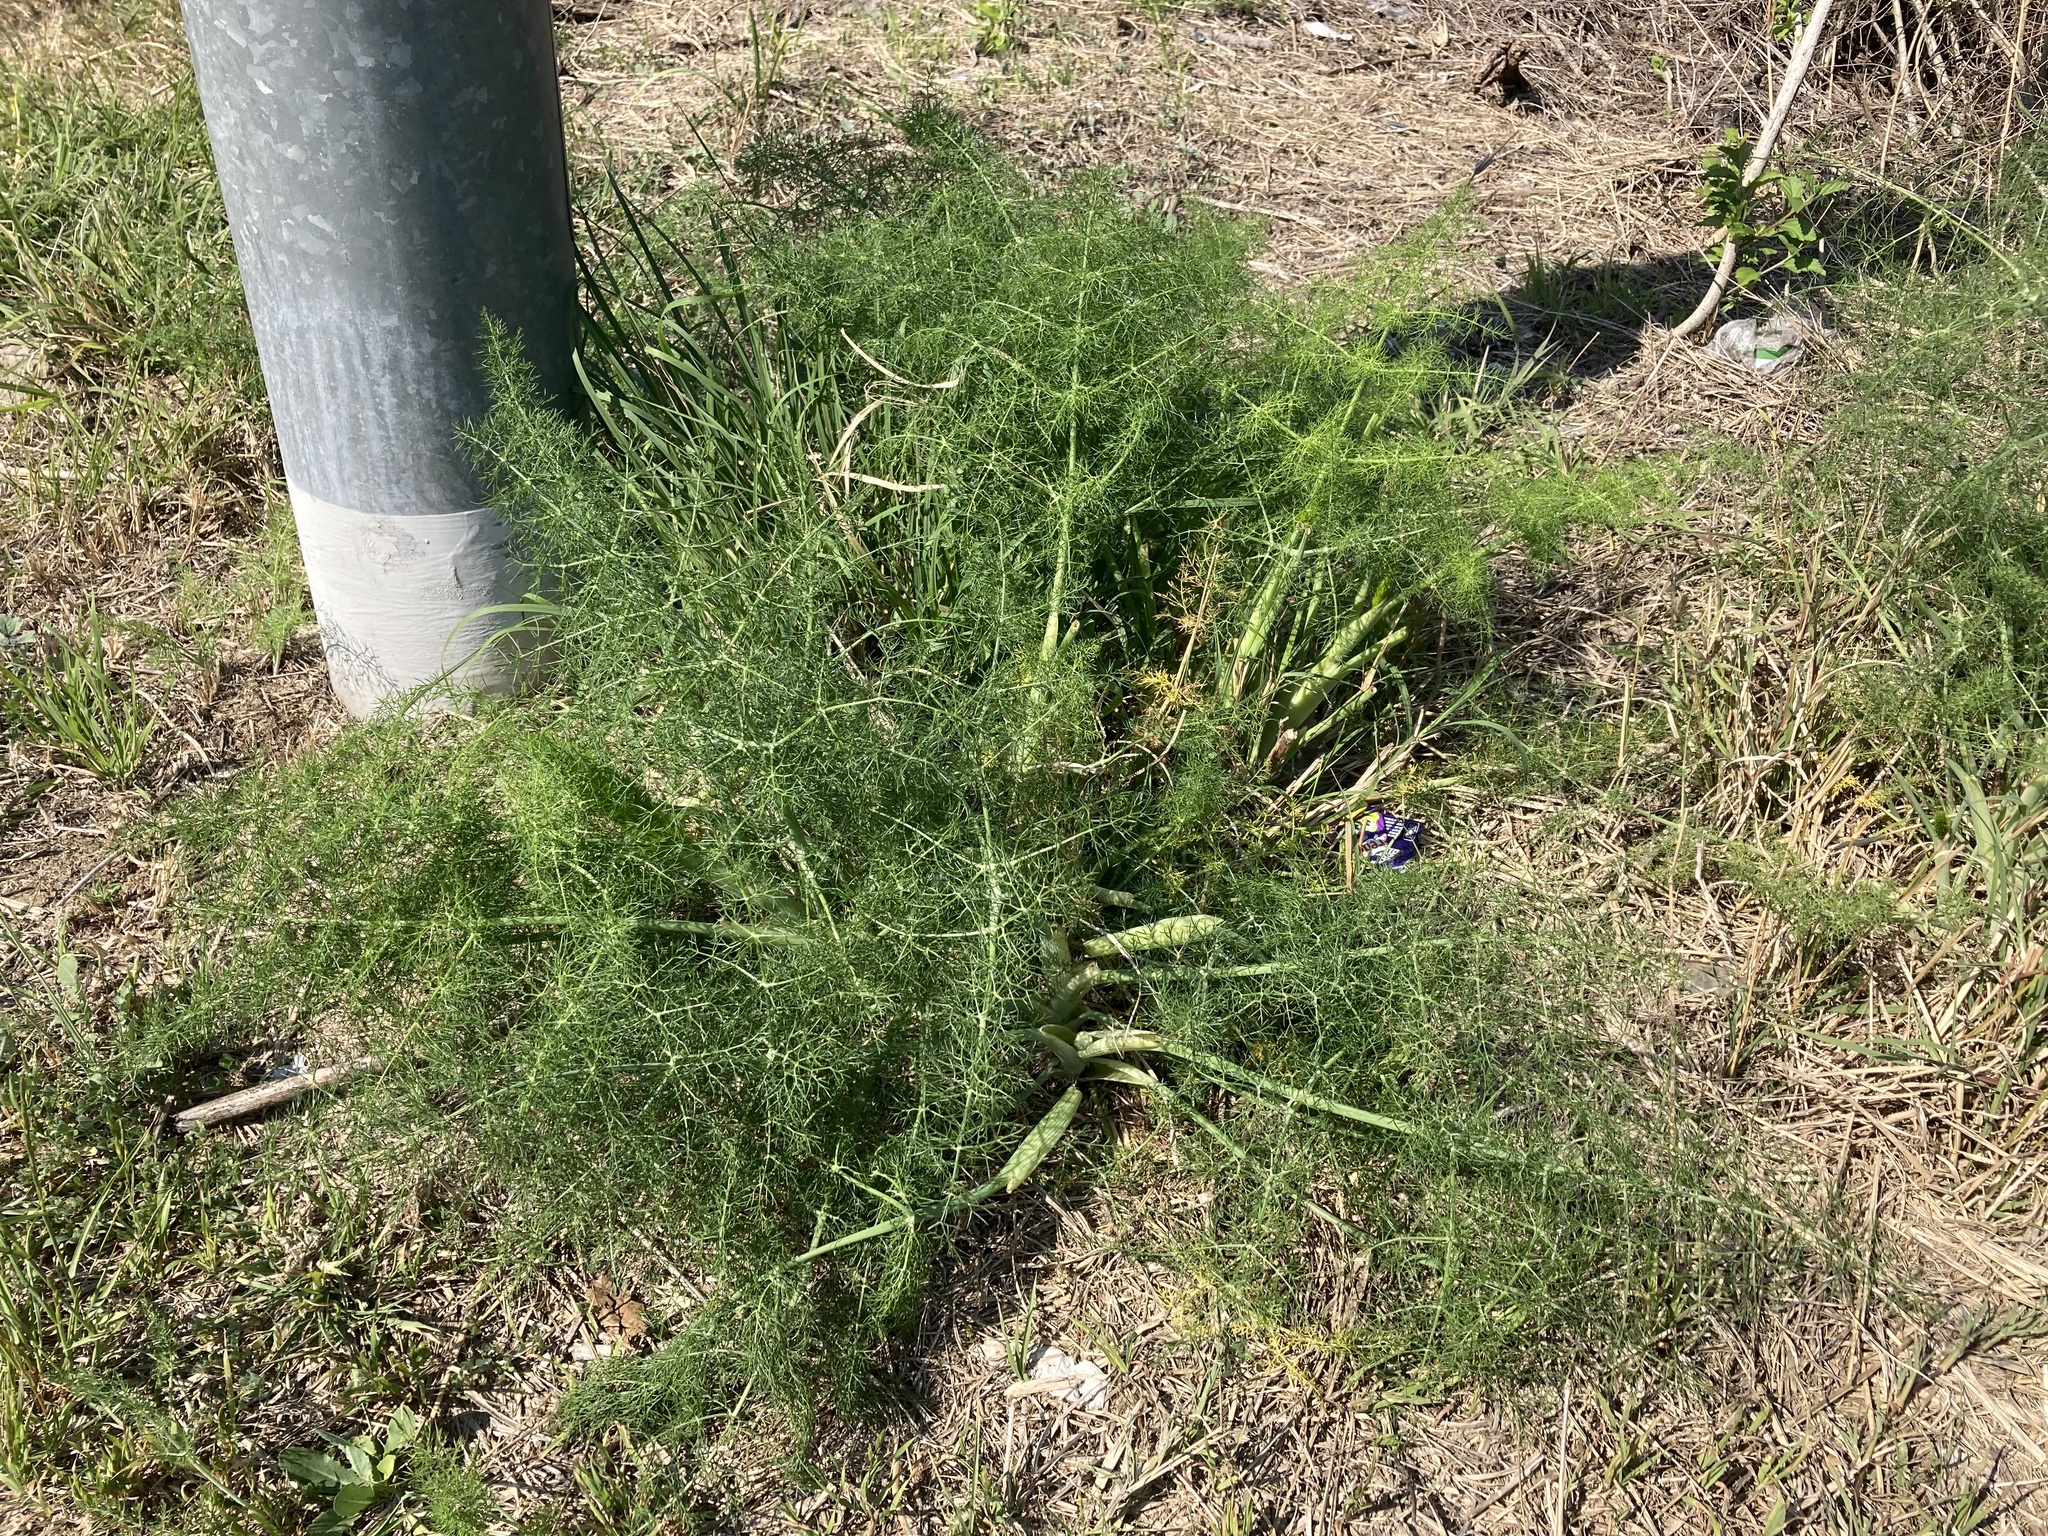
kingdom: Plantae
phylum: Tracheophyta
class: Magnoliopsida
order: Apiales
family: Apiaceae
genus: Foeniculum
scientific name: Foeniculum vulgare
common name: Fennel
